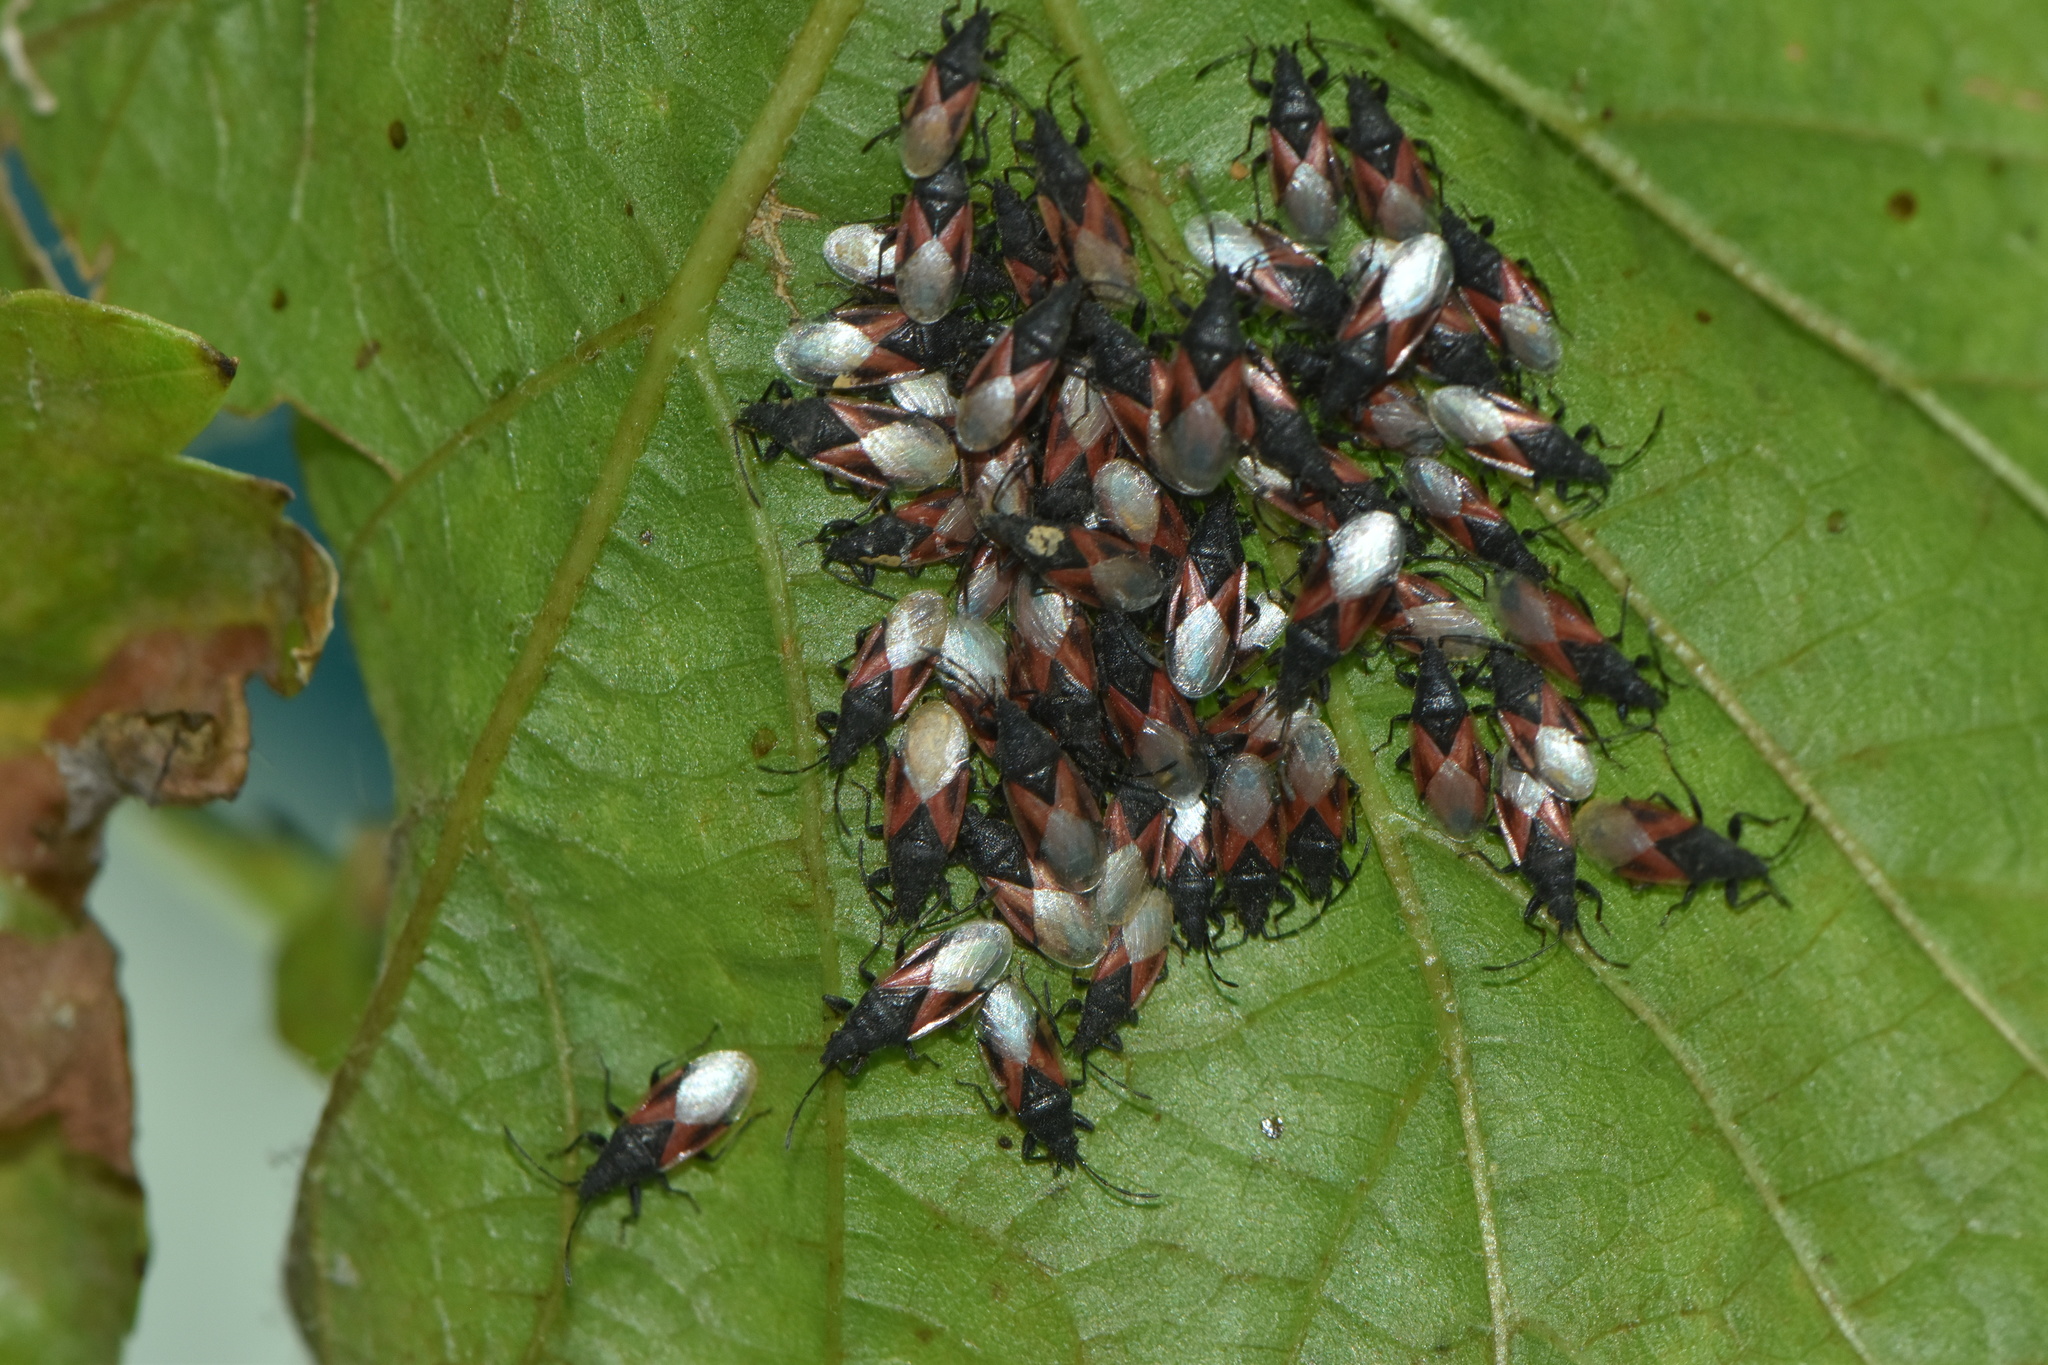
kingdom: Animalia
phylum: Arthropoda
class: Insecta
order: Hemiptera
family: Oxycarenidae
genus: Oxycarenus
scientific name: Oxycarenus lavaterae
